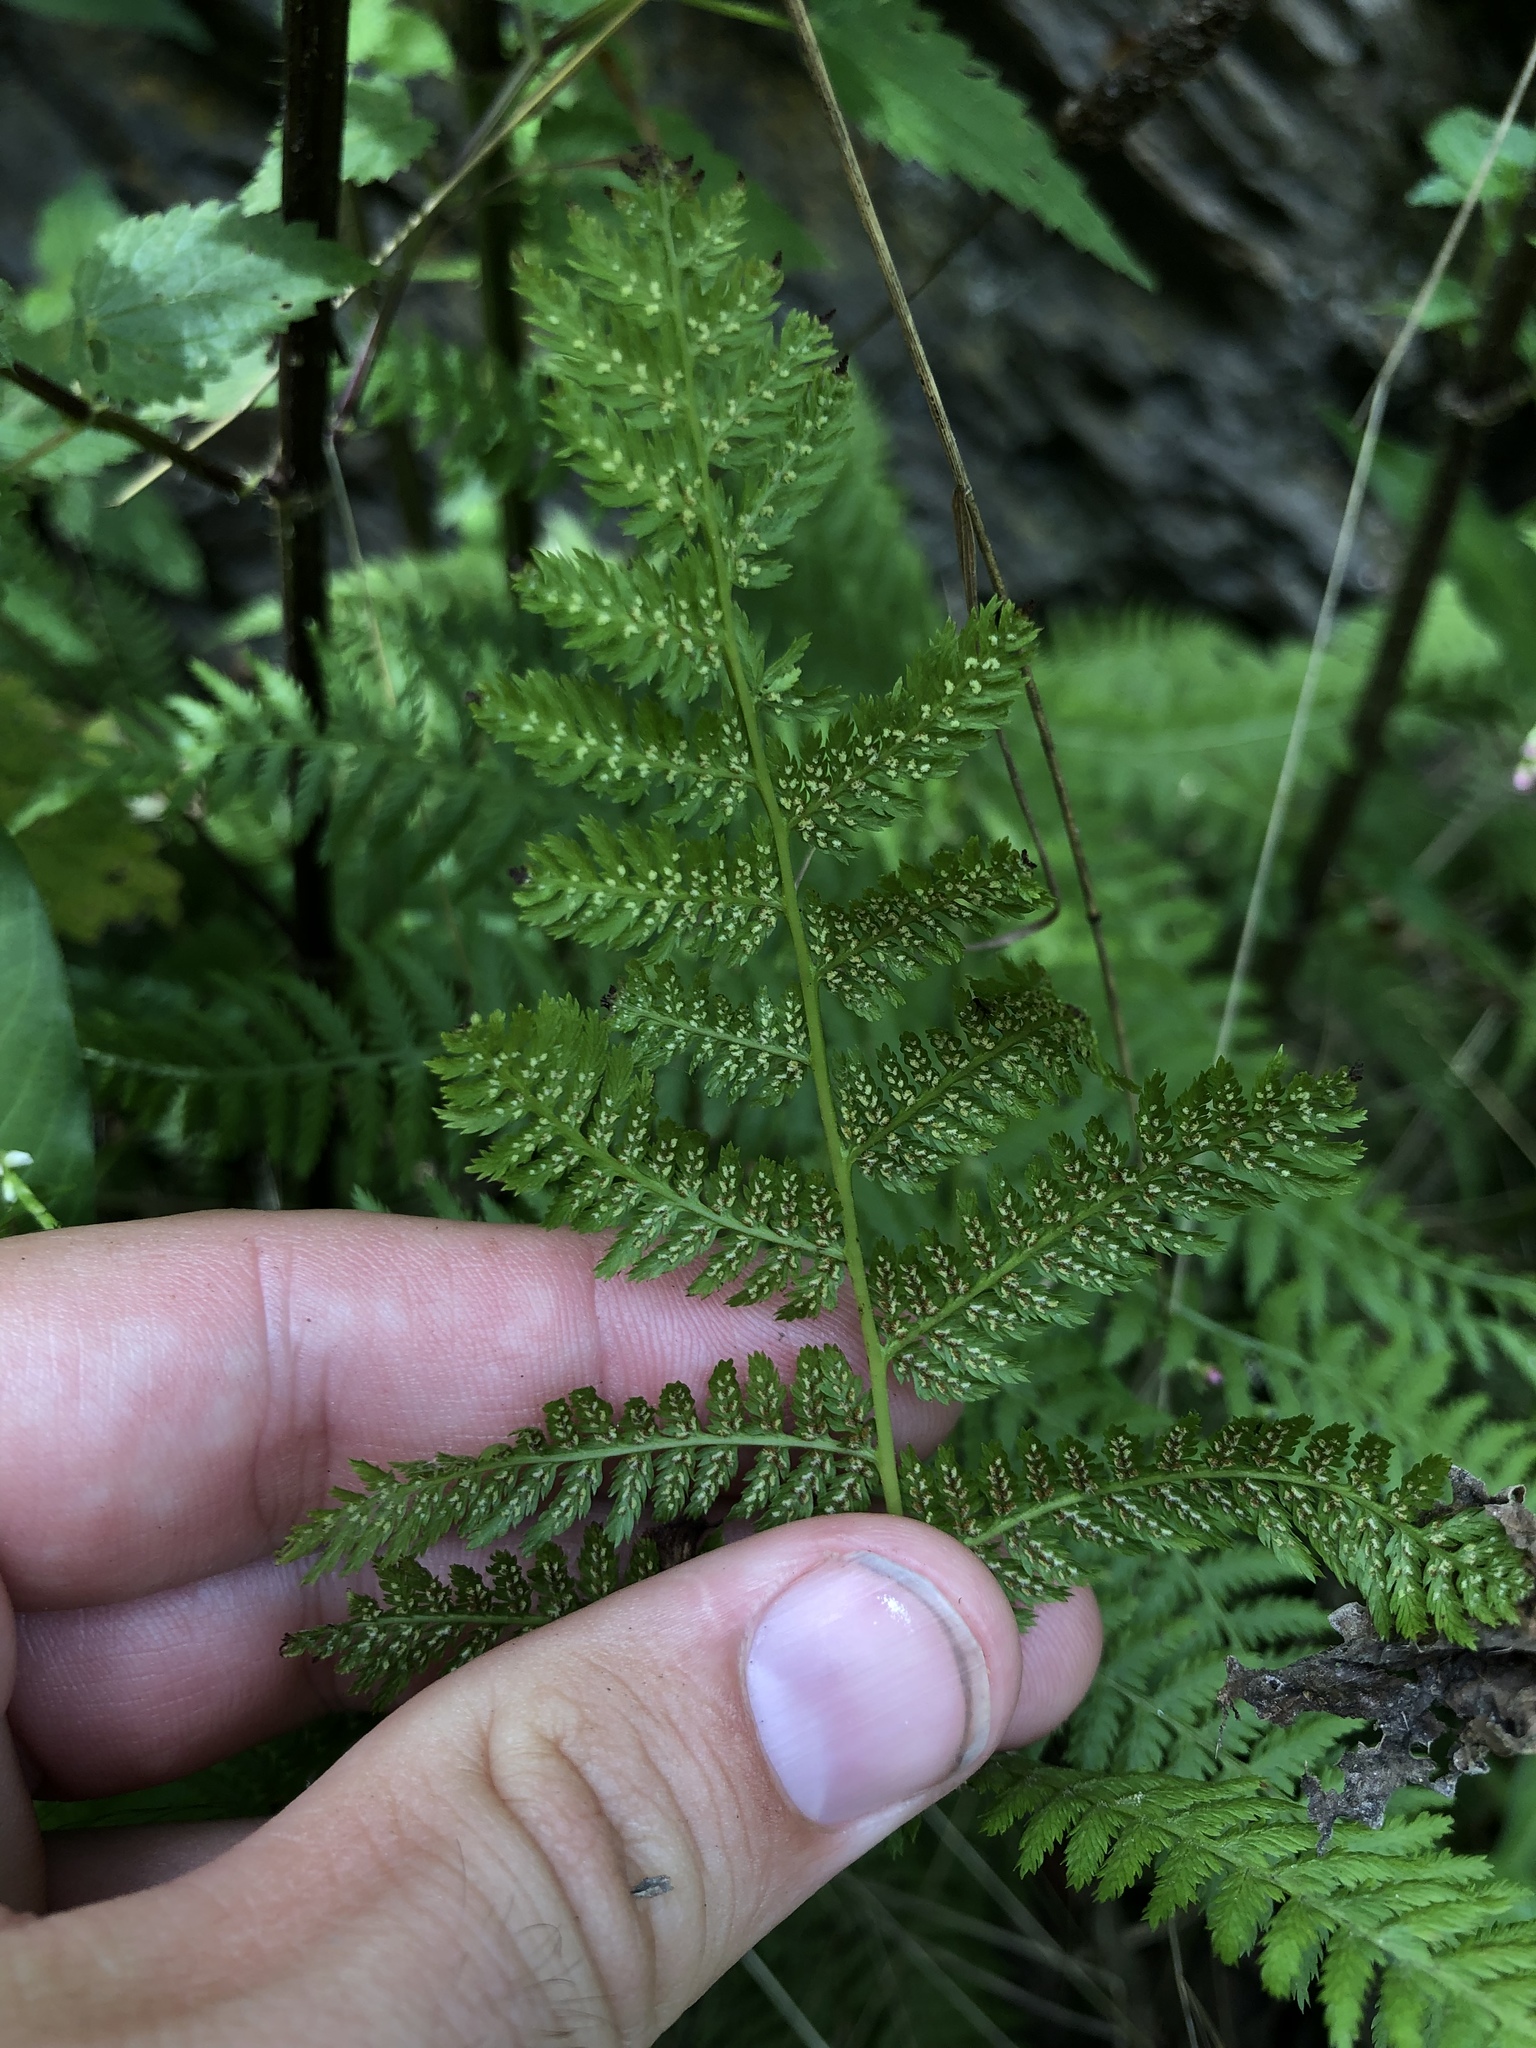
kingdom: Plantae
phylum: Tracheophyta
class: Polypodiopsida
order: Polypodiales
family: Athyriaceae
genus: Athyrium
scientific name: Athyrium filix-femina
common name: Lady fern
